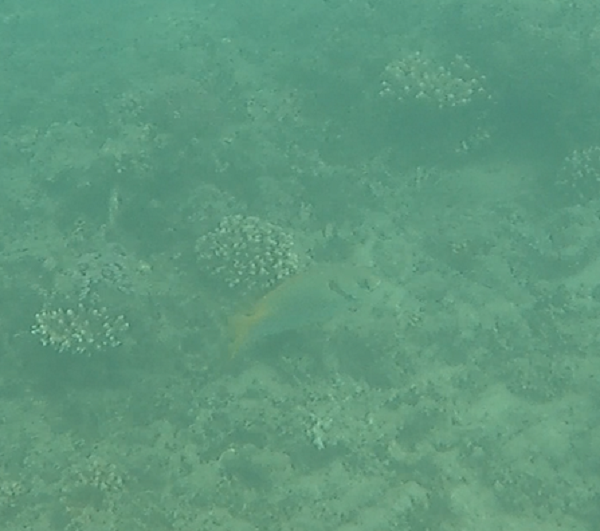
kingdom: Animalia
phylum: Chordata
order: Perciformes
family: Siganidae
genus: Siganus
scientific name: Siganus doliatus
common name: Barred spinefoot
